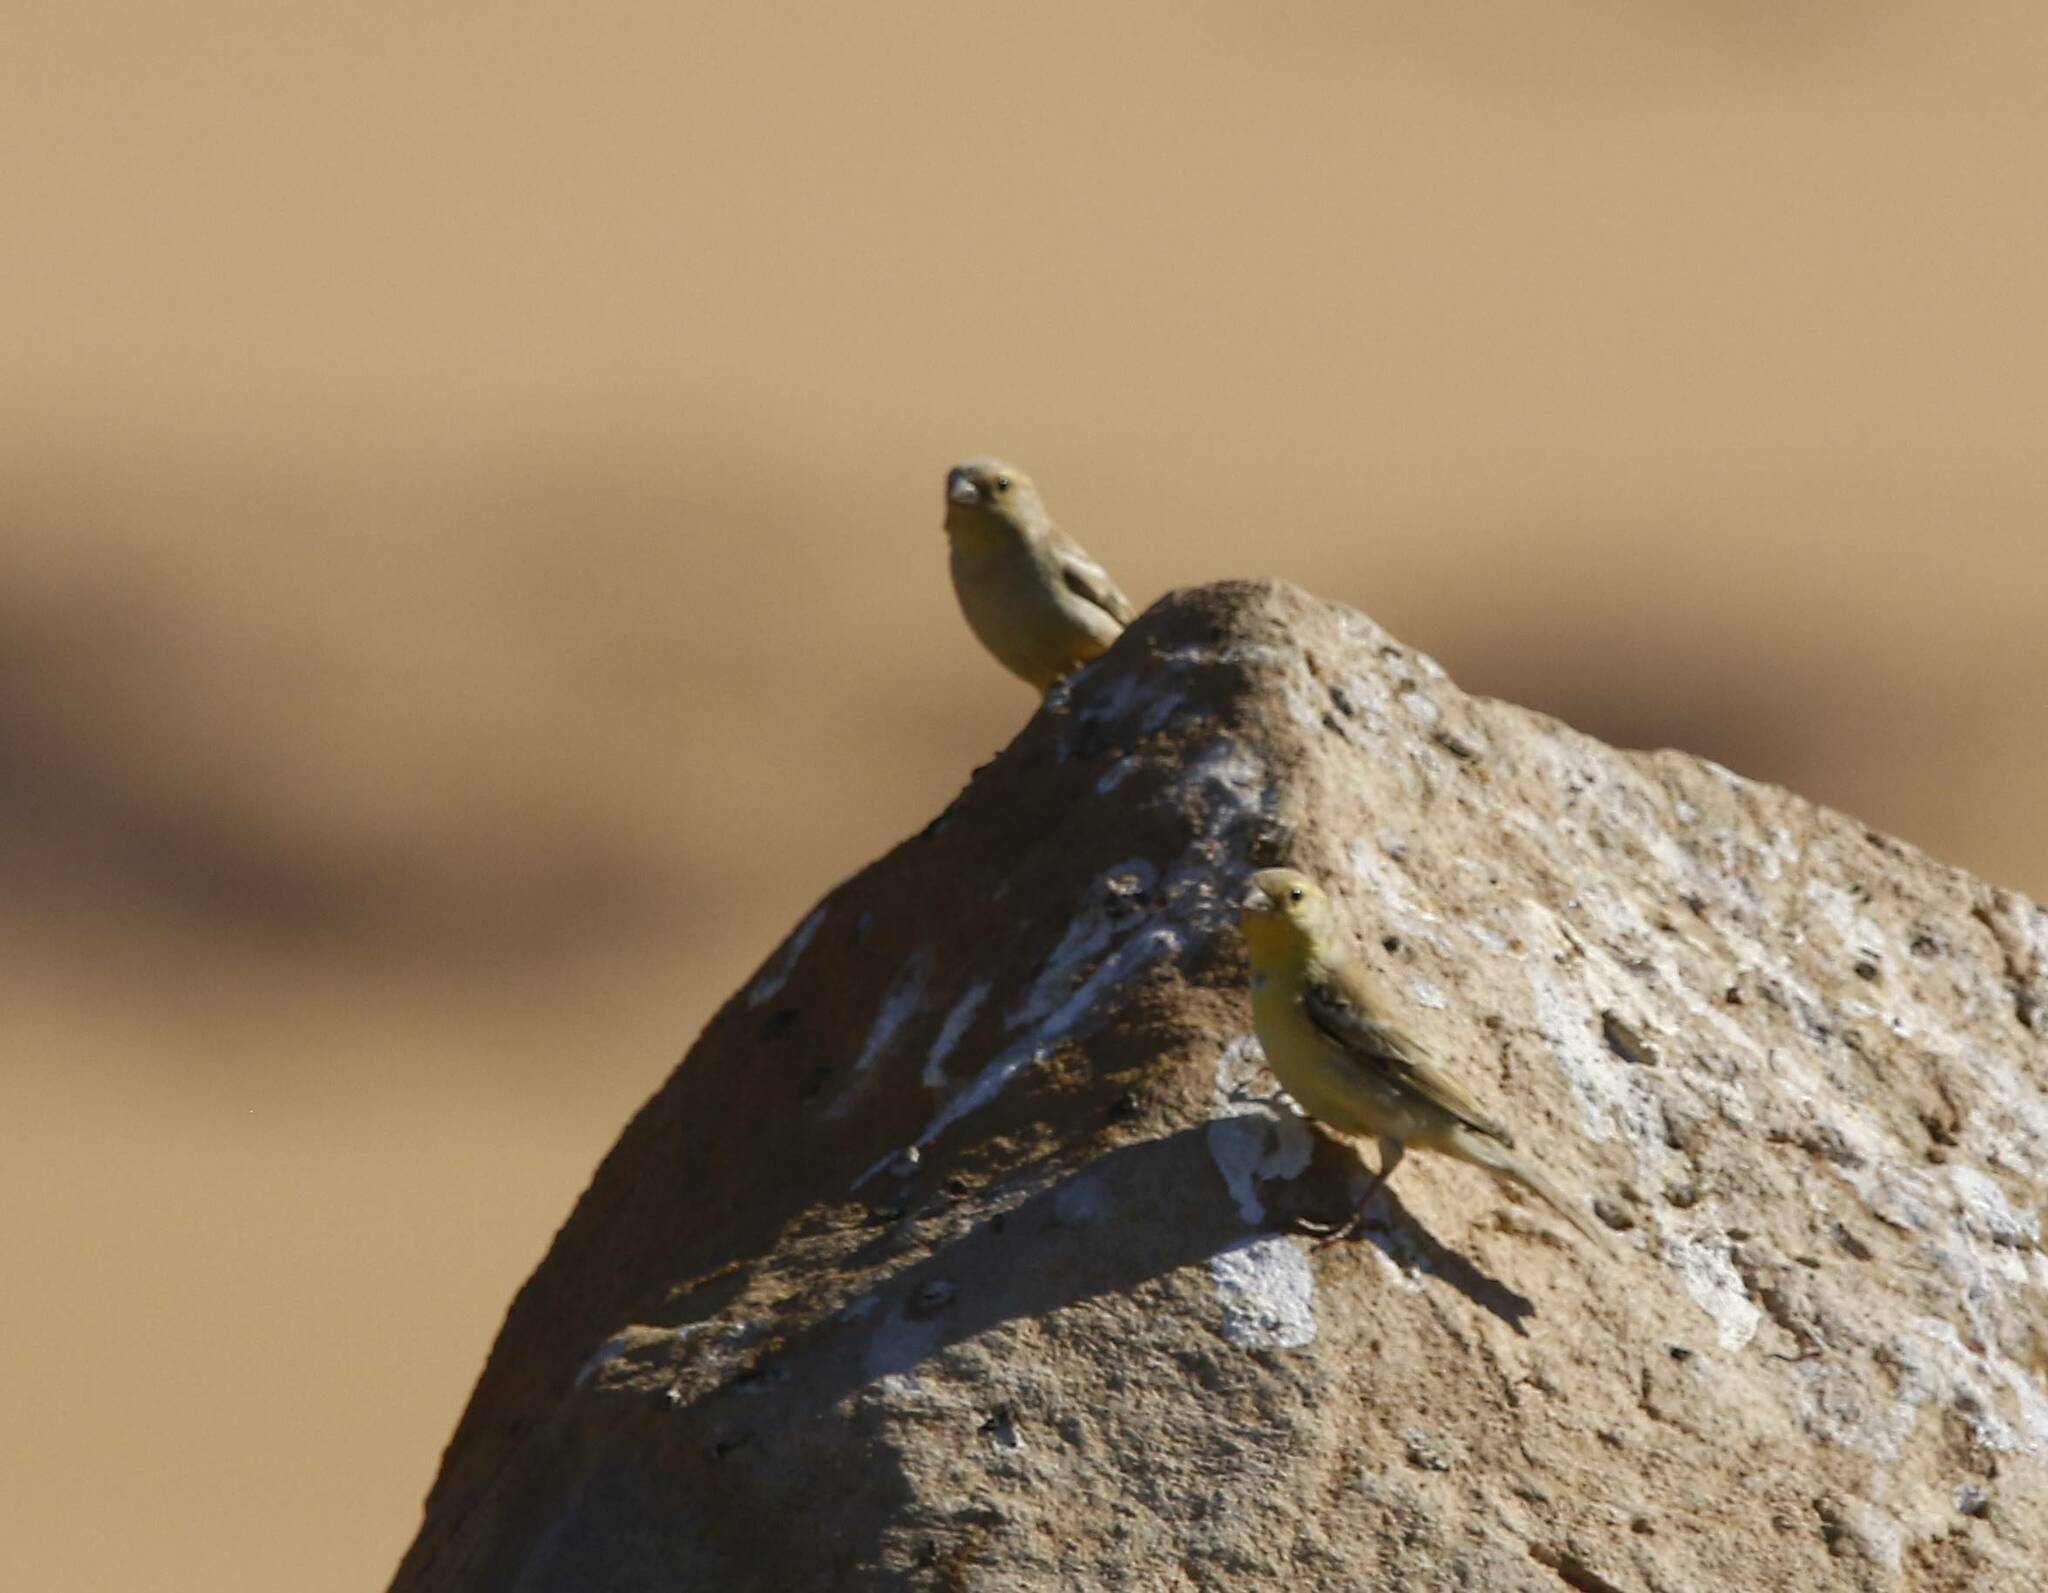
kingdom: Animalia
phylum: Chordata
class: Aves
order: Passeriformes
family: Passeridae
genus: Passer
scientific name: Passer luteus
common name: Sudan golden sparrow
